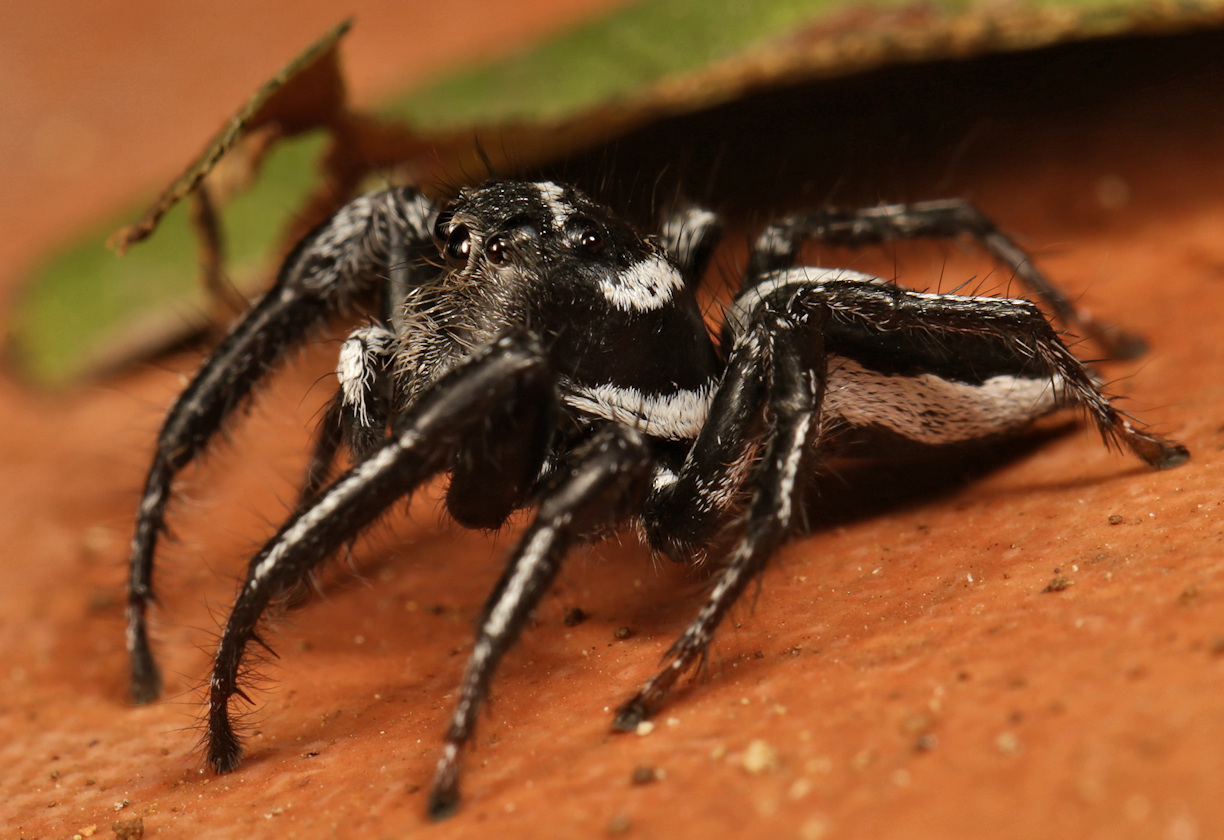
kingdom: Animalia
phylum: Arthropoda
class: Arachnida
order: Araneae
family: Salticidae
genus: Hyllus
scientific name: Hyllus argyrotoxus
